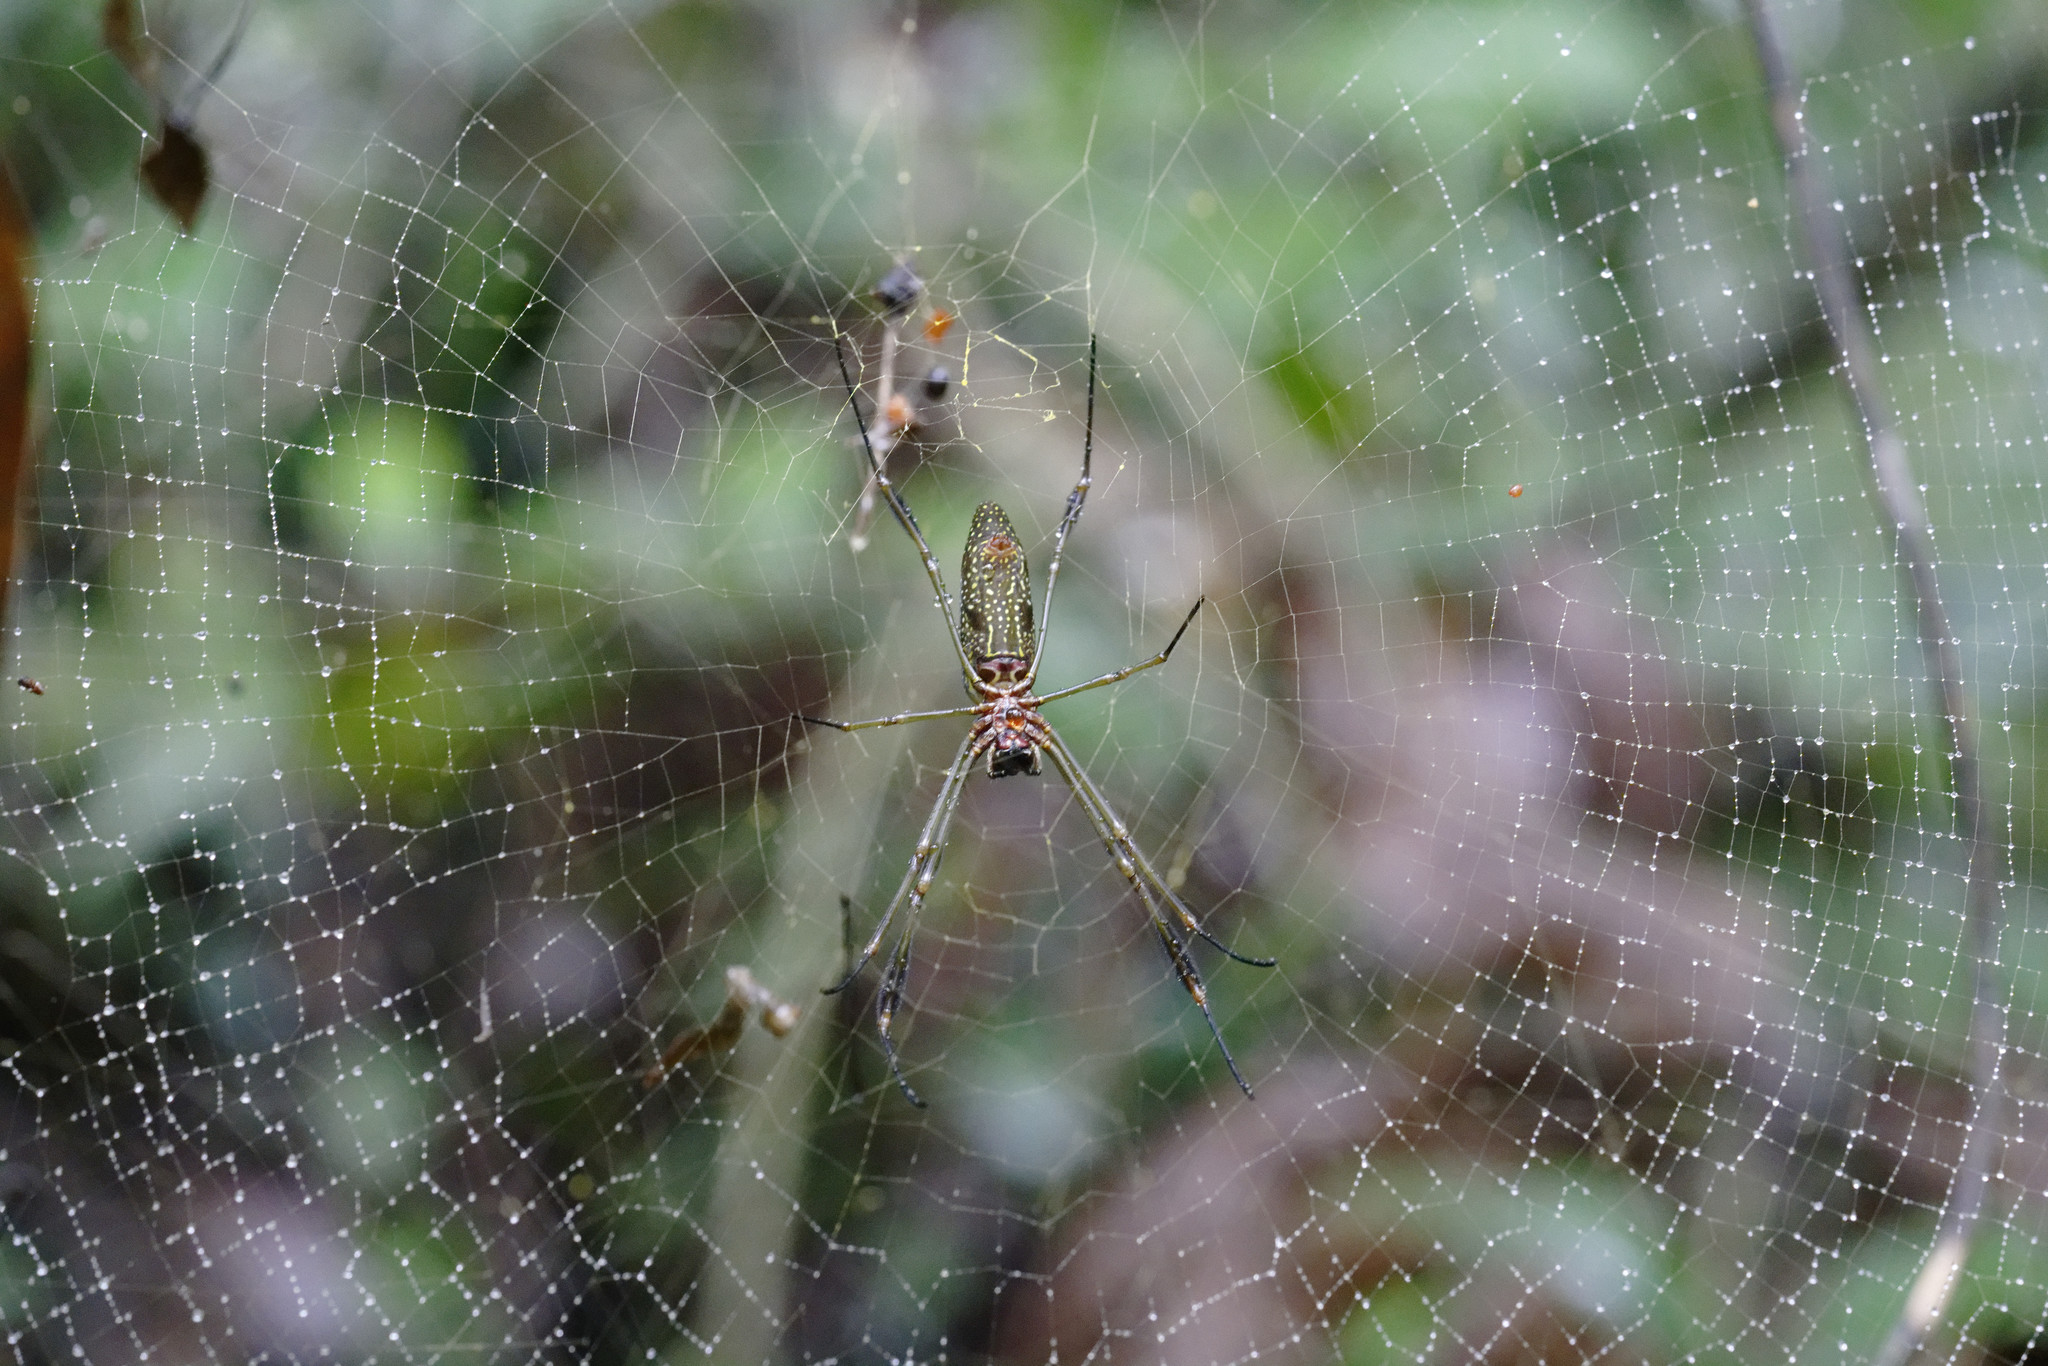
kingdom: Animalia
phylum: Arthropoda
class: Arachnida
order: Araneae
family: Araneidae
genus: Trichonephila
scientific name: Trichonephila clavipes
